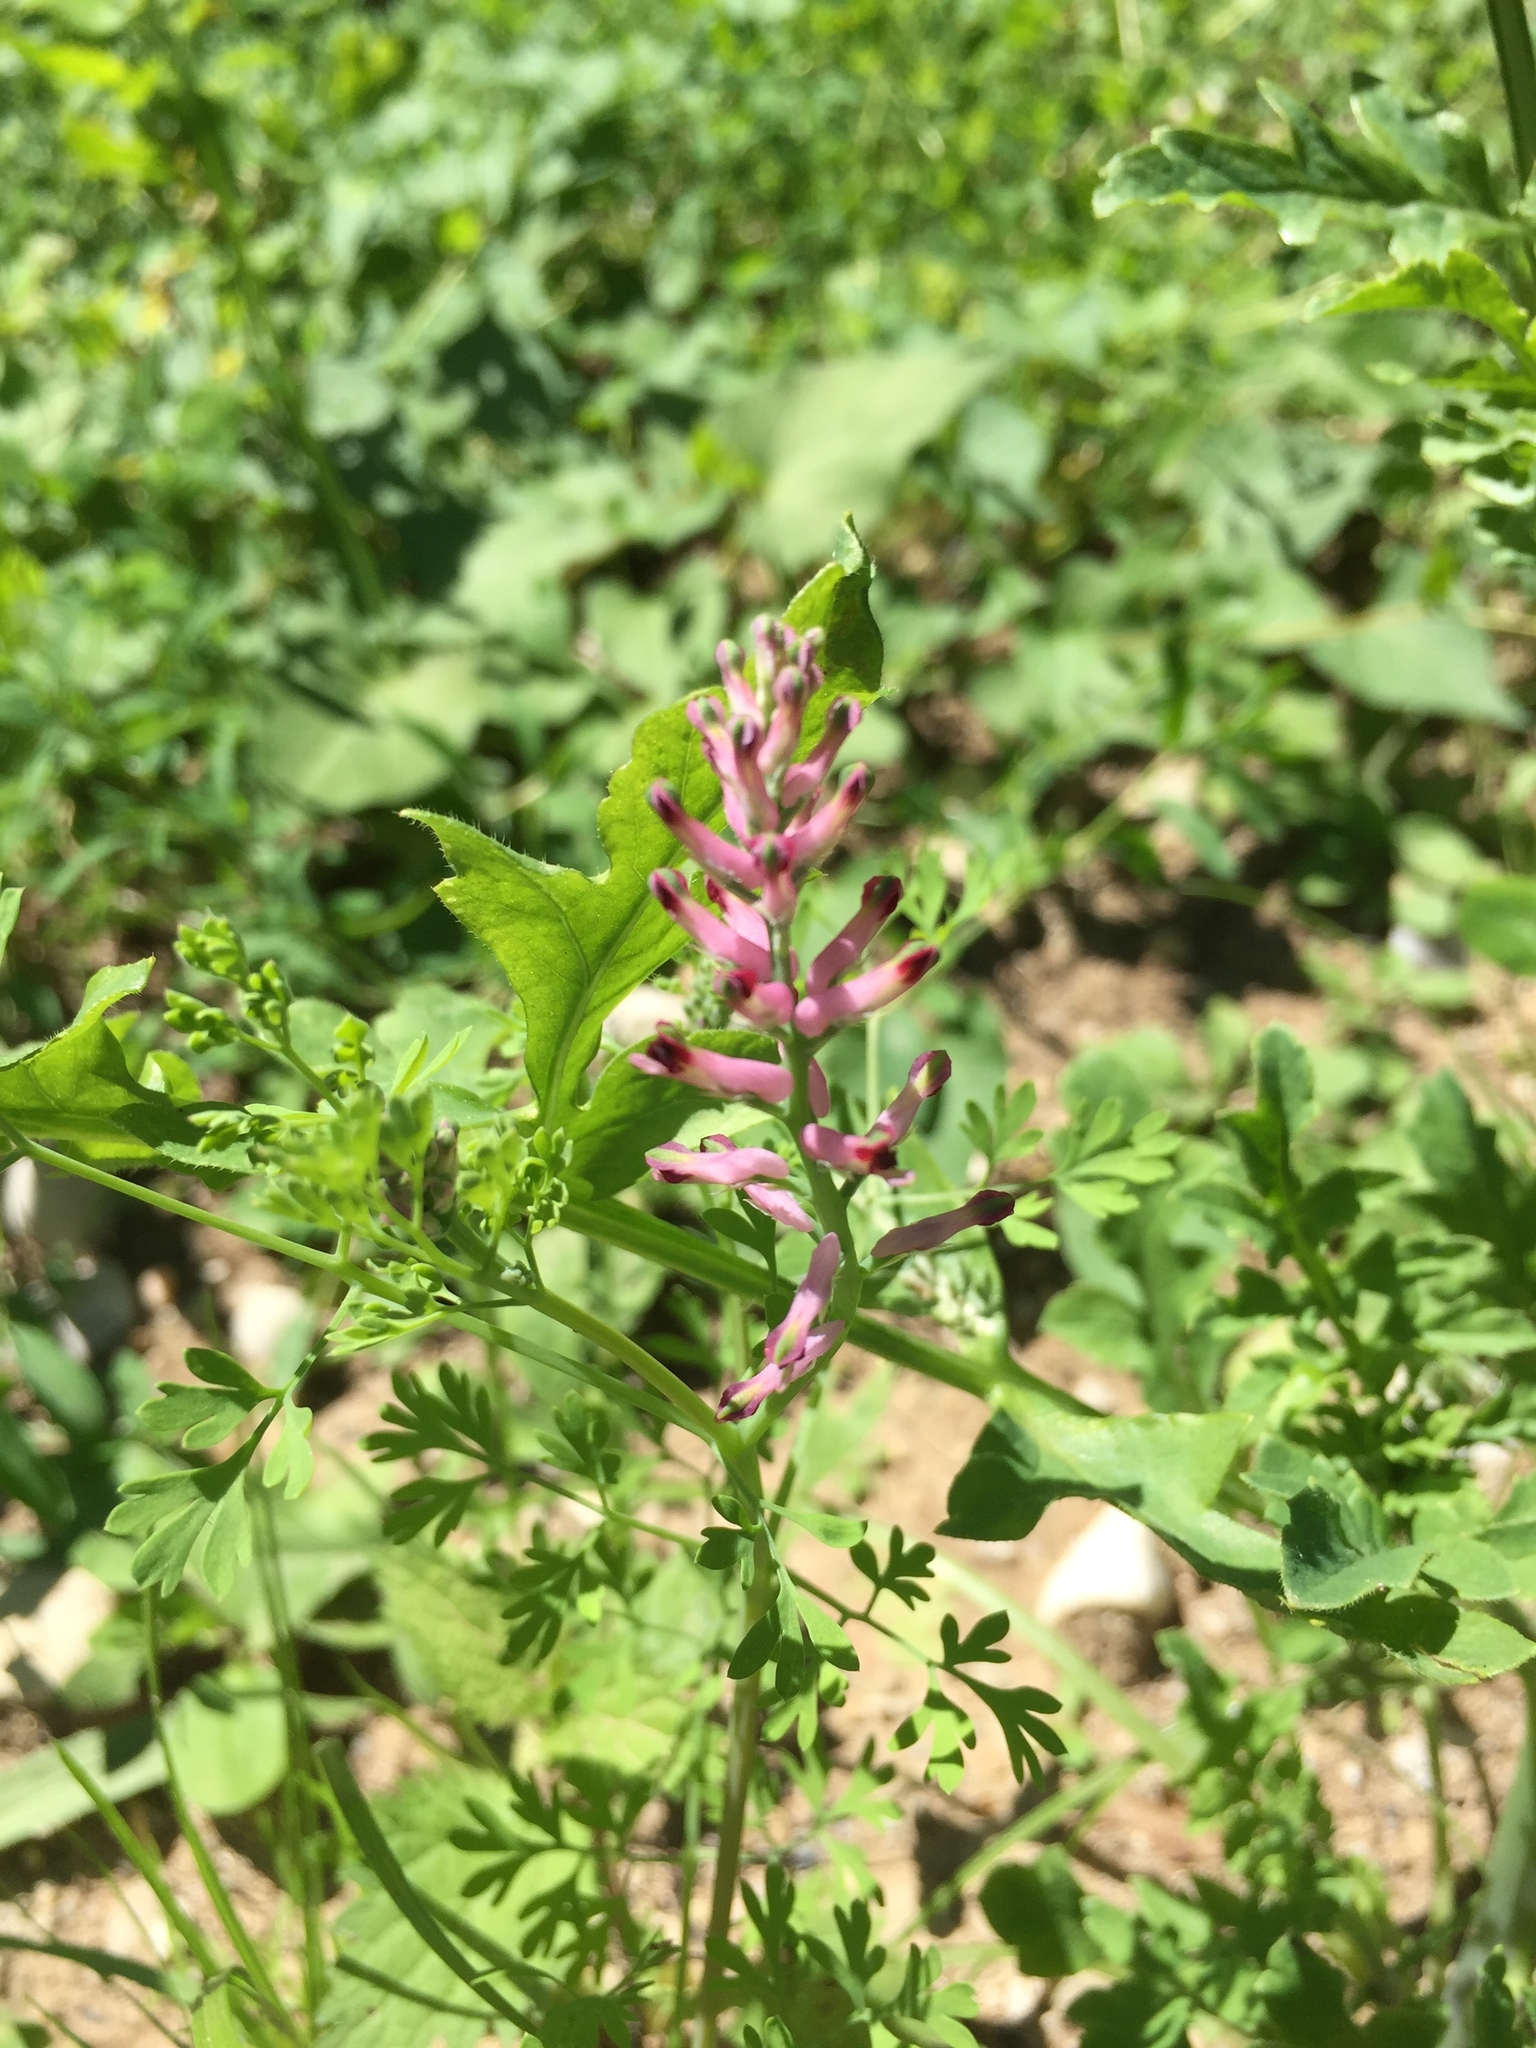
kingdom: Plantae
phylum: Tracheophyta
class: Magnoliopsida
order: Ranunculales
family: Papaveraceae
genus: Fumaria
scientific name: Fumaria officinalis
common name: Common fumitory
